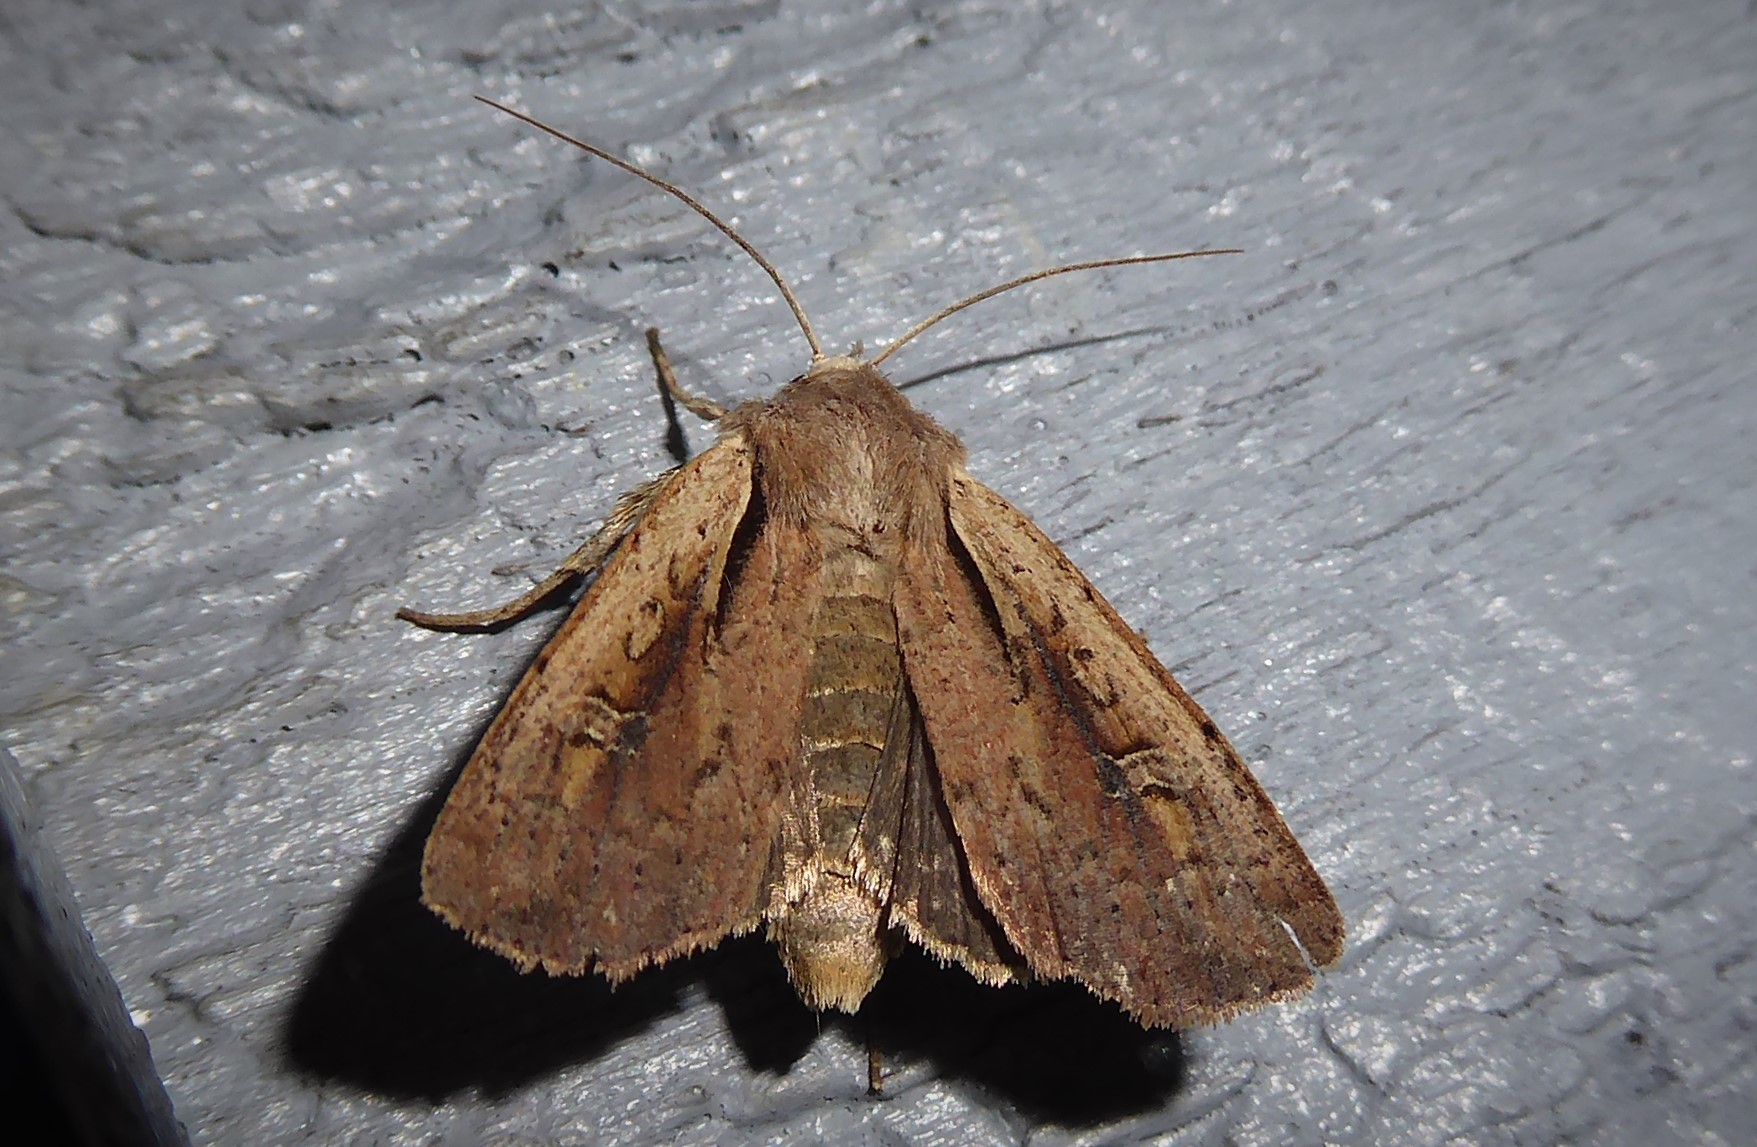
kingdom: Animalia
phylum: Arthropoda
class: Insecta
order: Lepidoptera
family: Noctuidae
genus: Ichneutica
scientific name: Ichneutica atristriga
